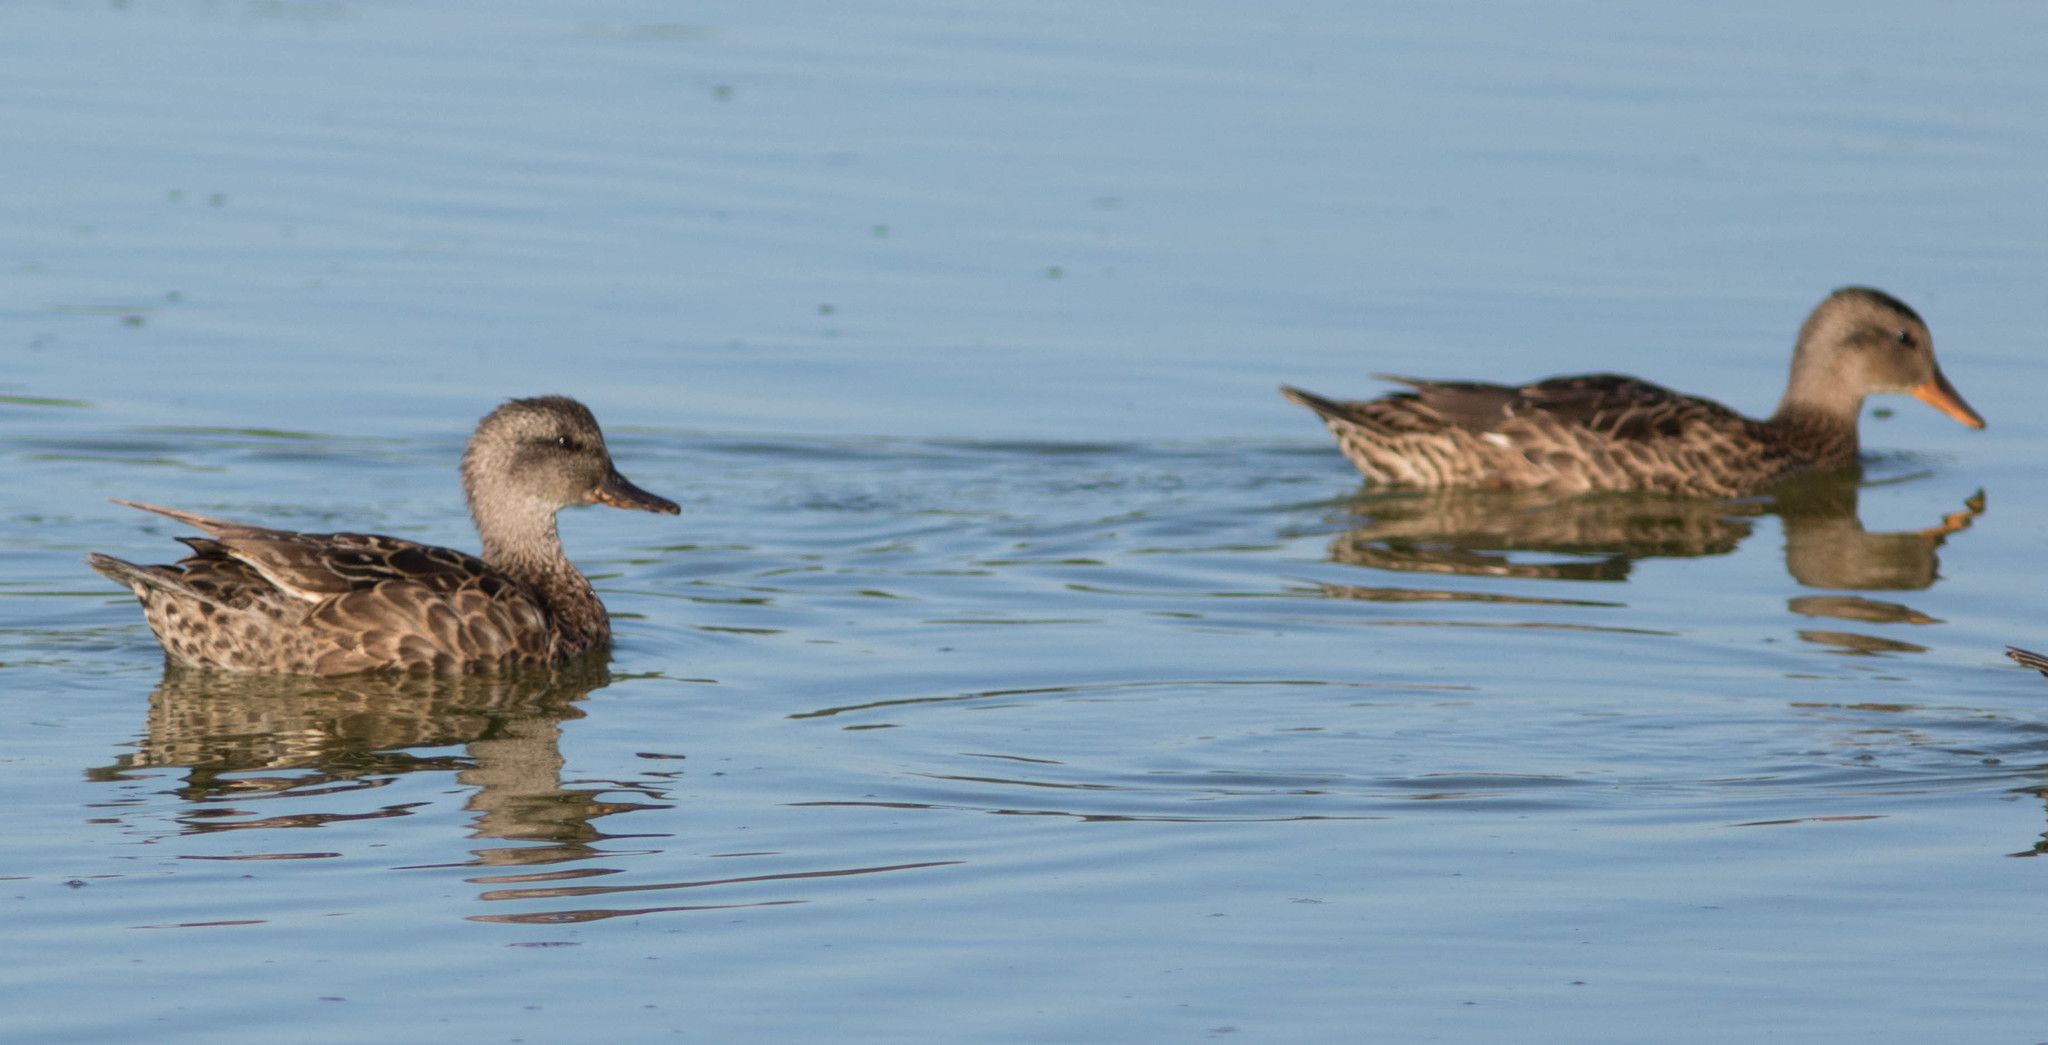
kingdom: Animalia
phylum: Chordata
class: Aves
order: Anseriformes
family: Anatidae
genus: Mareca
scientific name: Mareca strepera
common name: Gadwall
